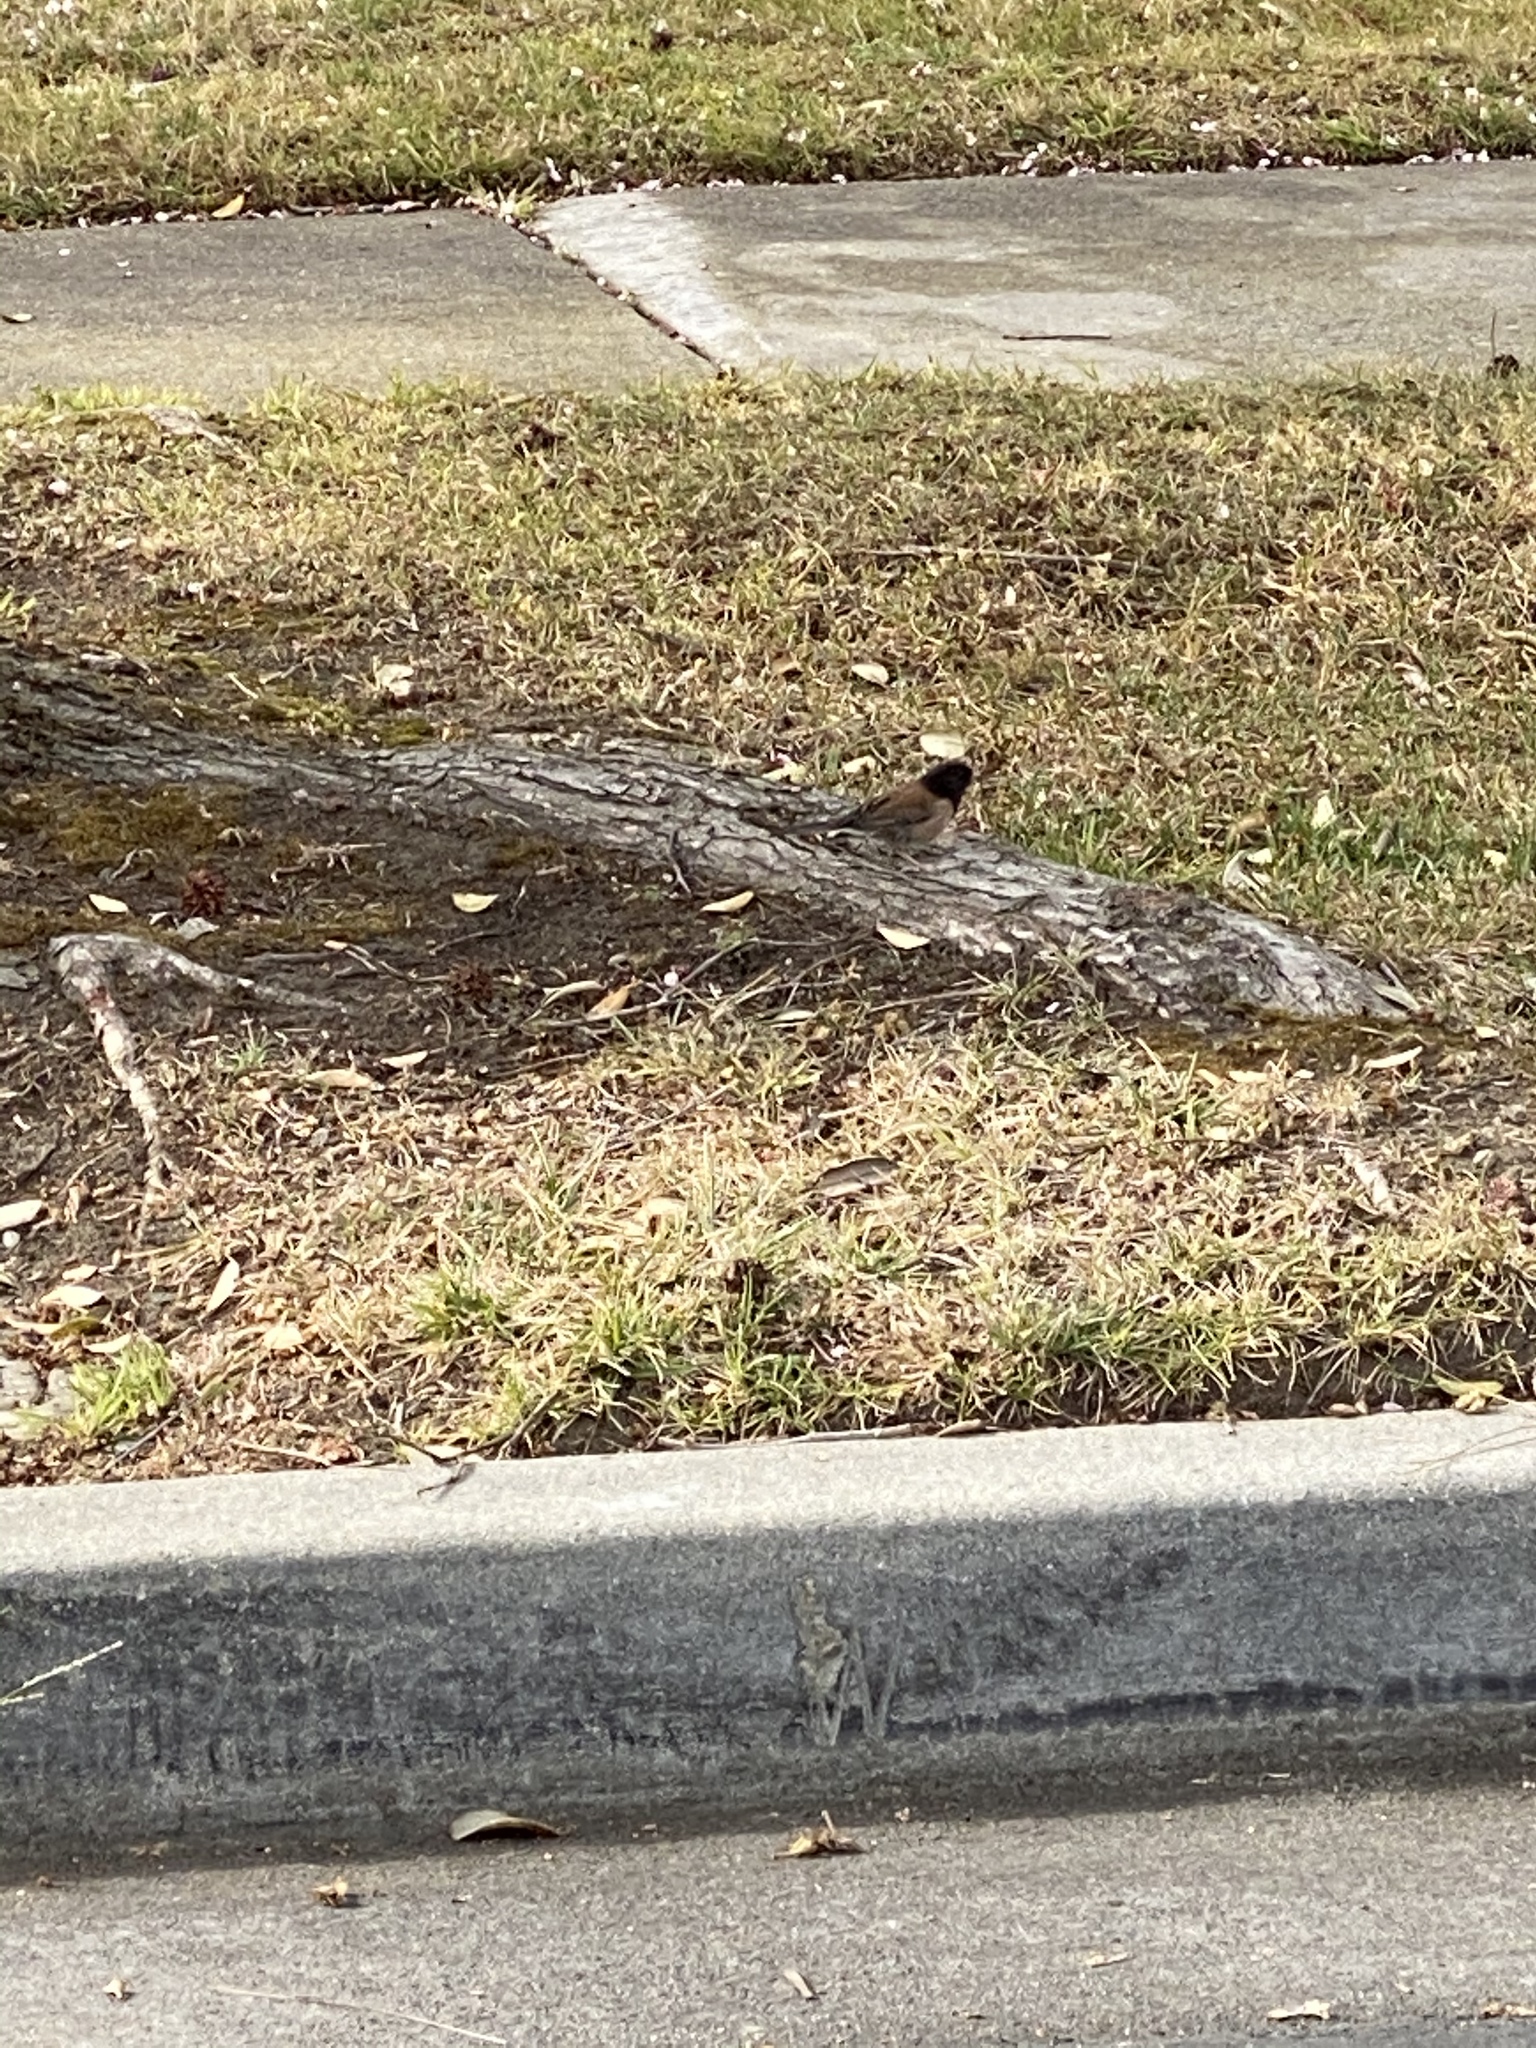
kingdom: Animalia
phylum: Chordata
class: Aves
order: Passeriformes
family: Passerellidae
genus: Junco
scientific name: Junco hyemalis
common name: Dark-eyed junco
